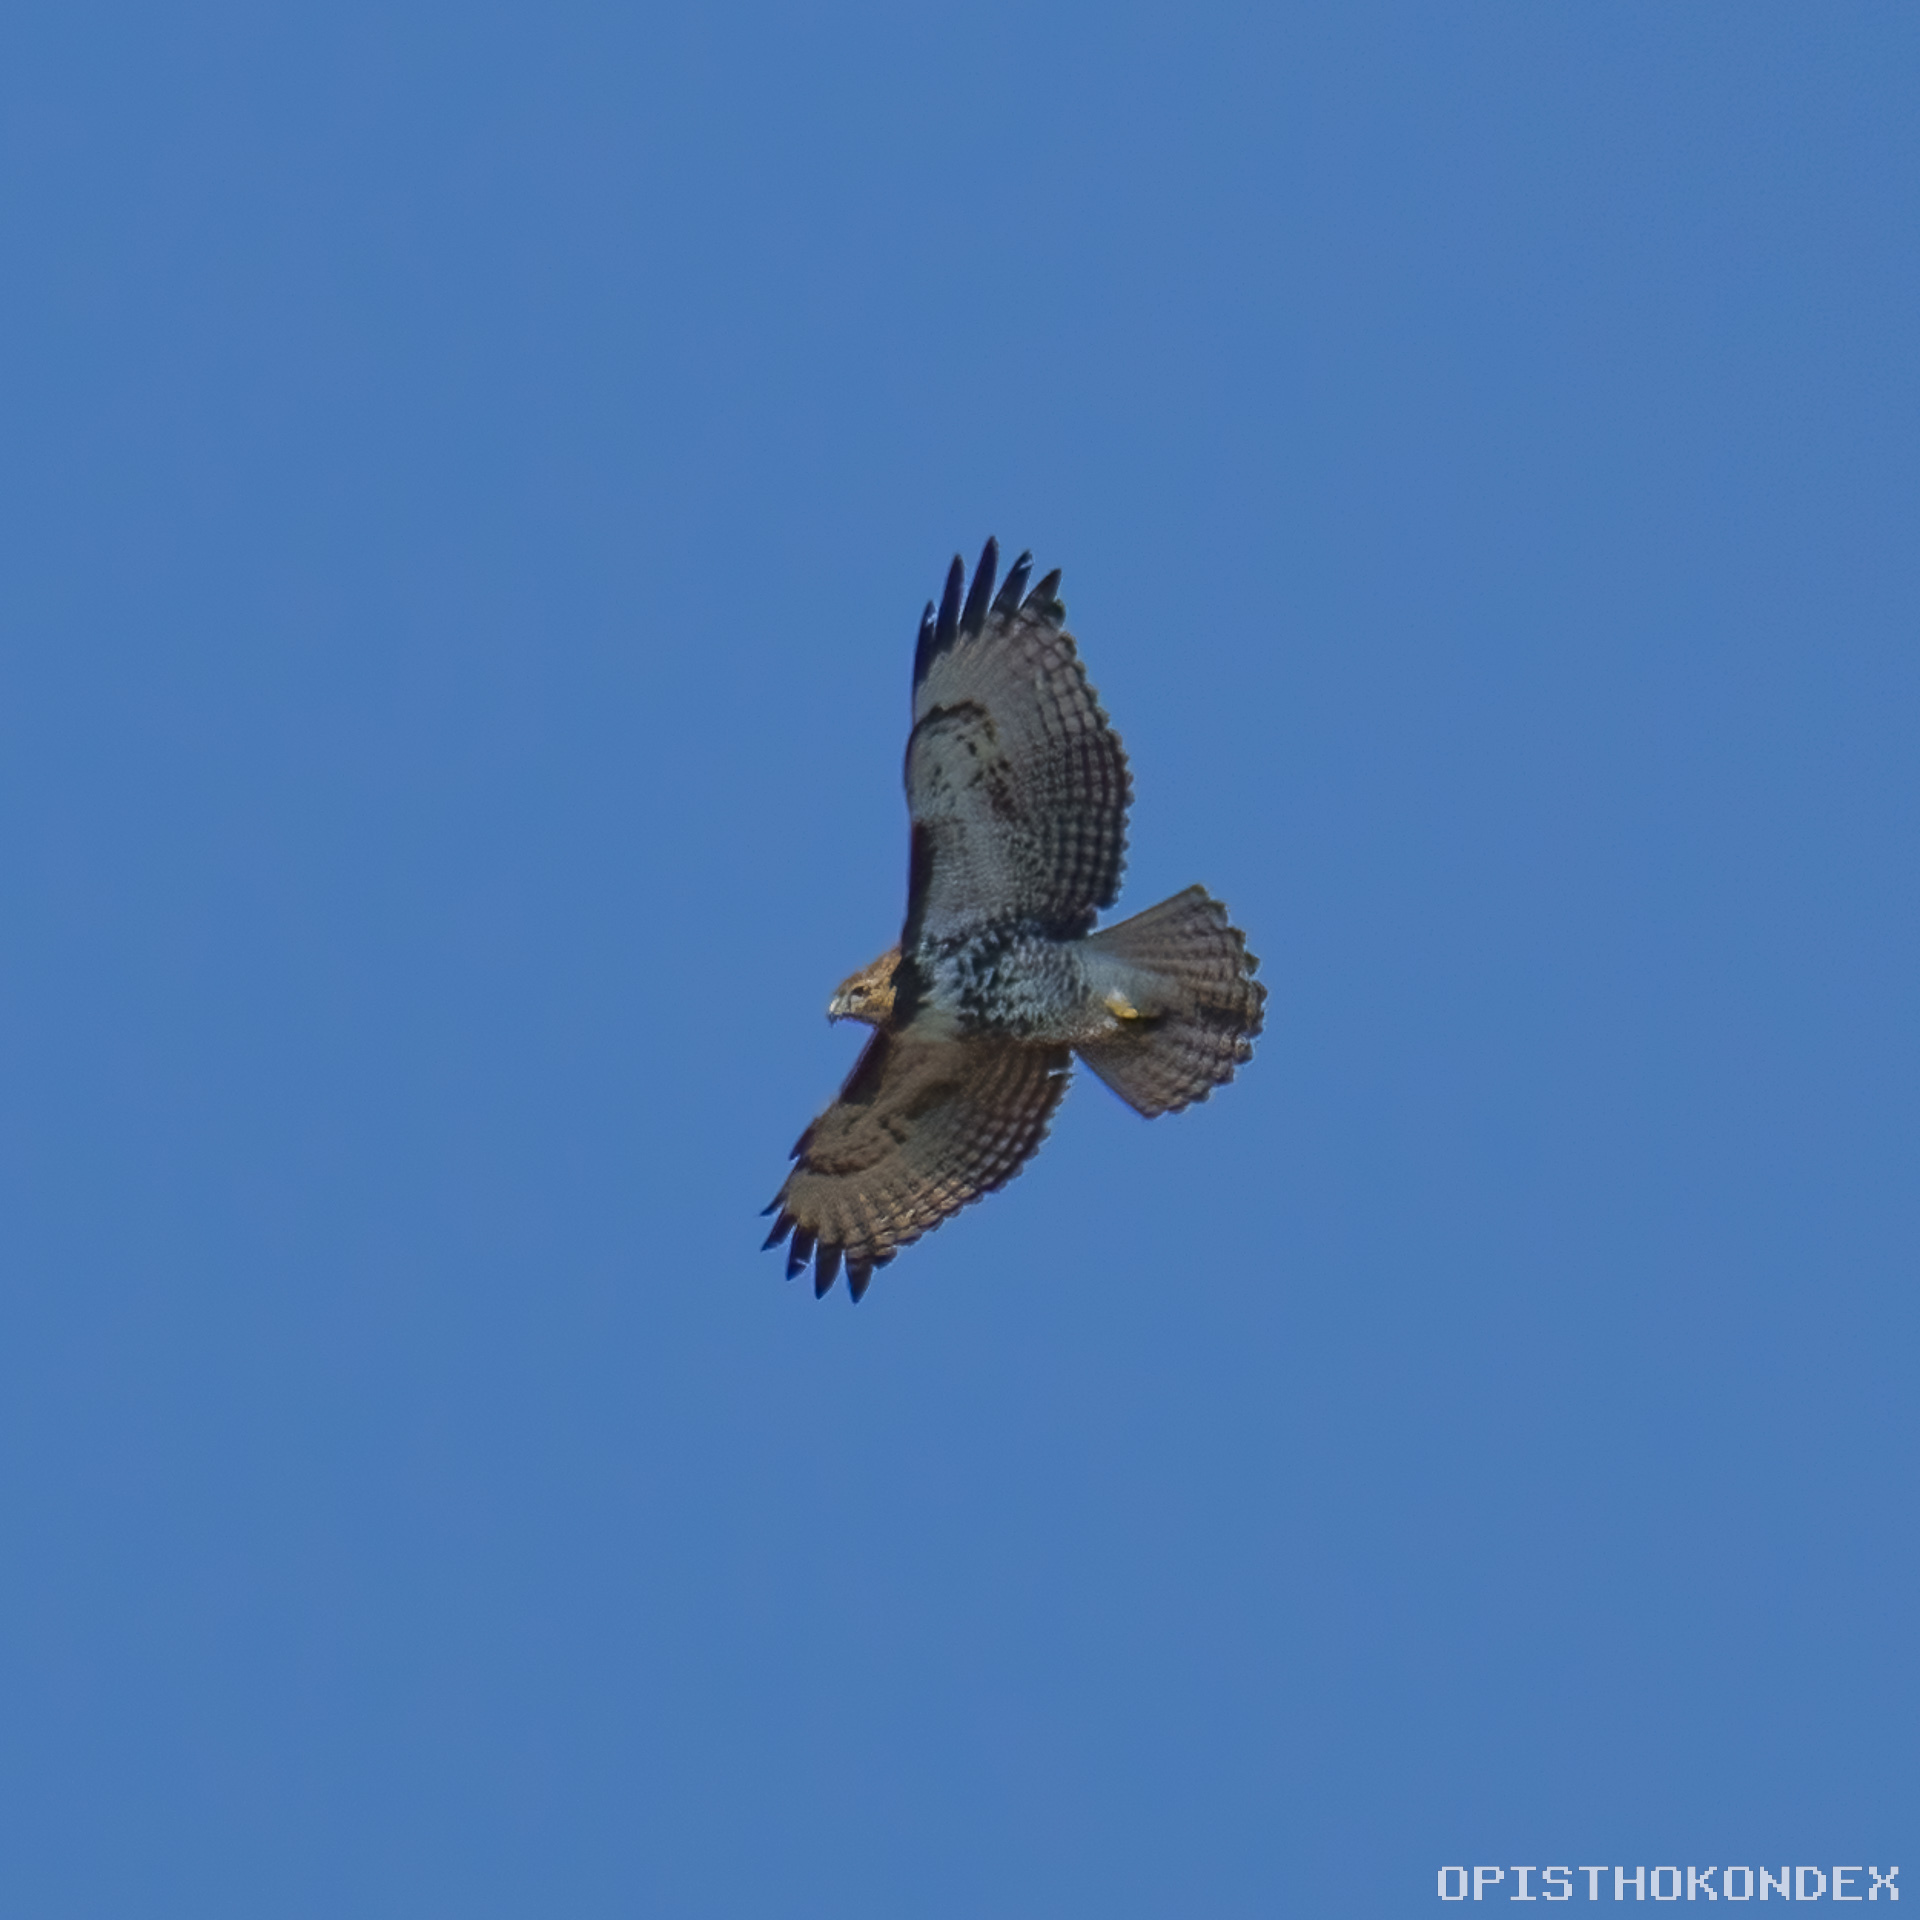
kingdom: Animalia
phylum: Chordata
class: Aves
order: Accipitriformes
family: Accipitridae
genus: Buteo
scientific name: Buteo jamaicensis
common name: Red-tailed hawk
